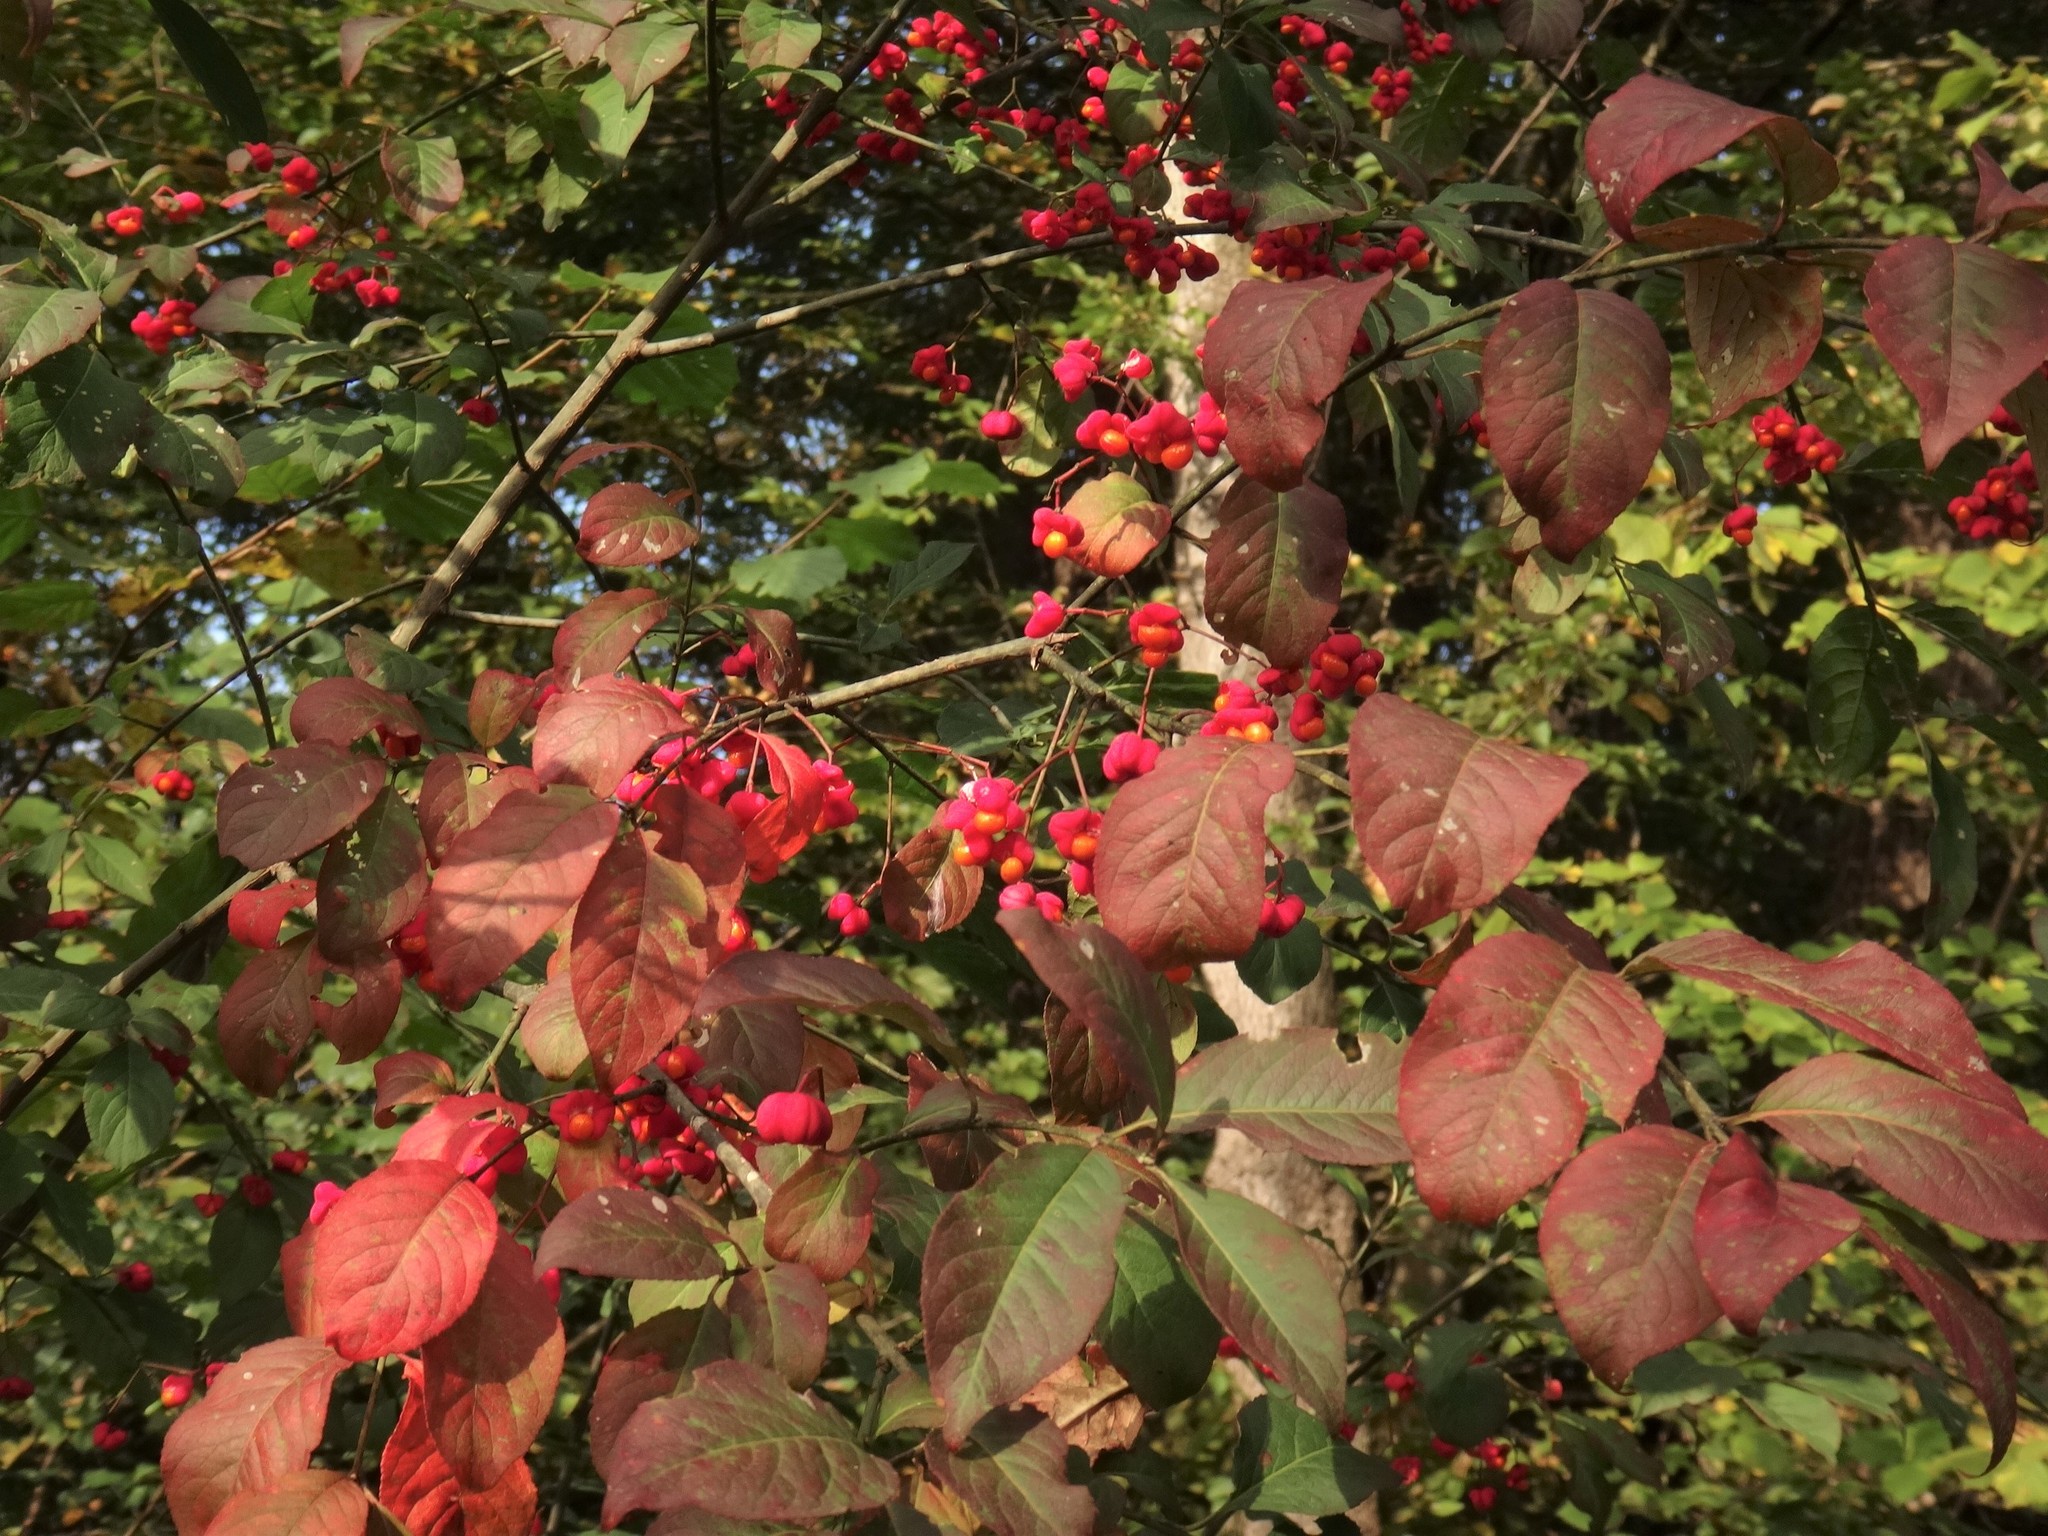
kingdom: Plantae
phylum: Tracheophyta
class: Magnoliopsida
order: Celastrales
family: Celastraceae
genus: Euonymus
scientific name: Euonymus europaeus
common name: Spindle
